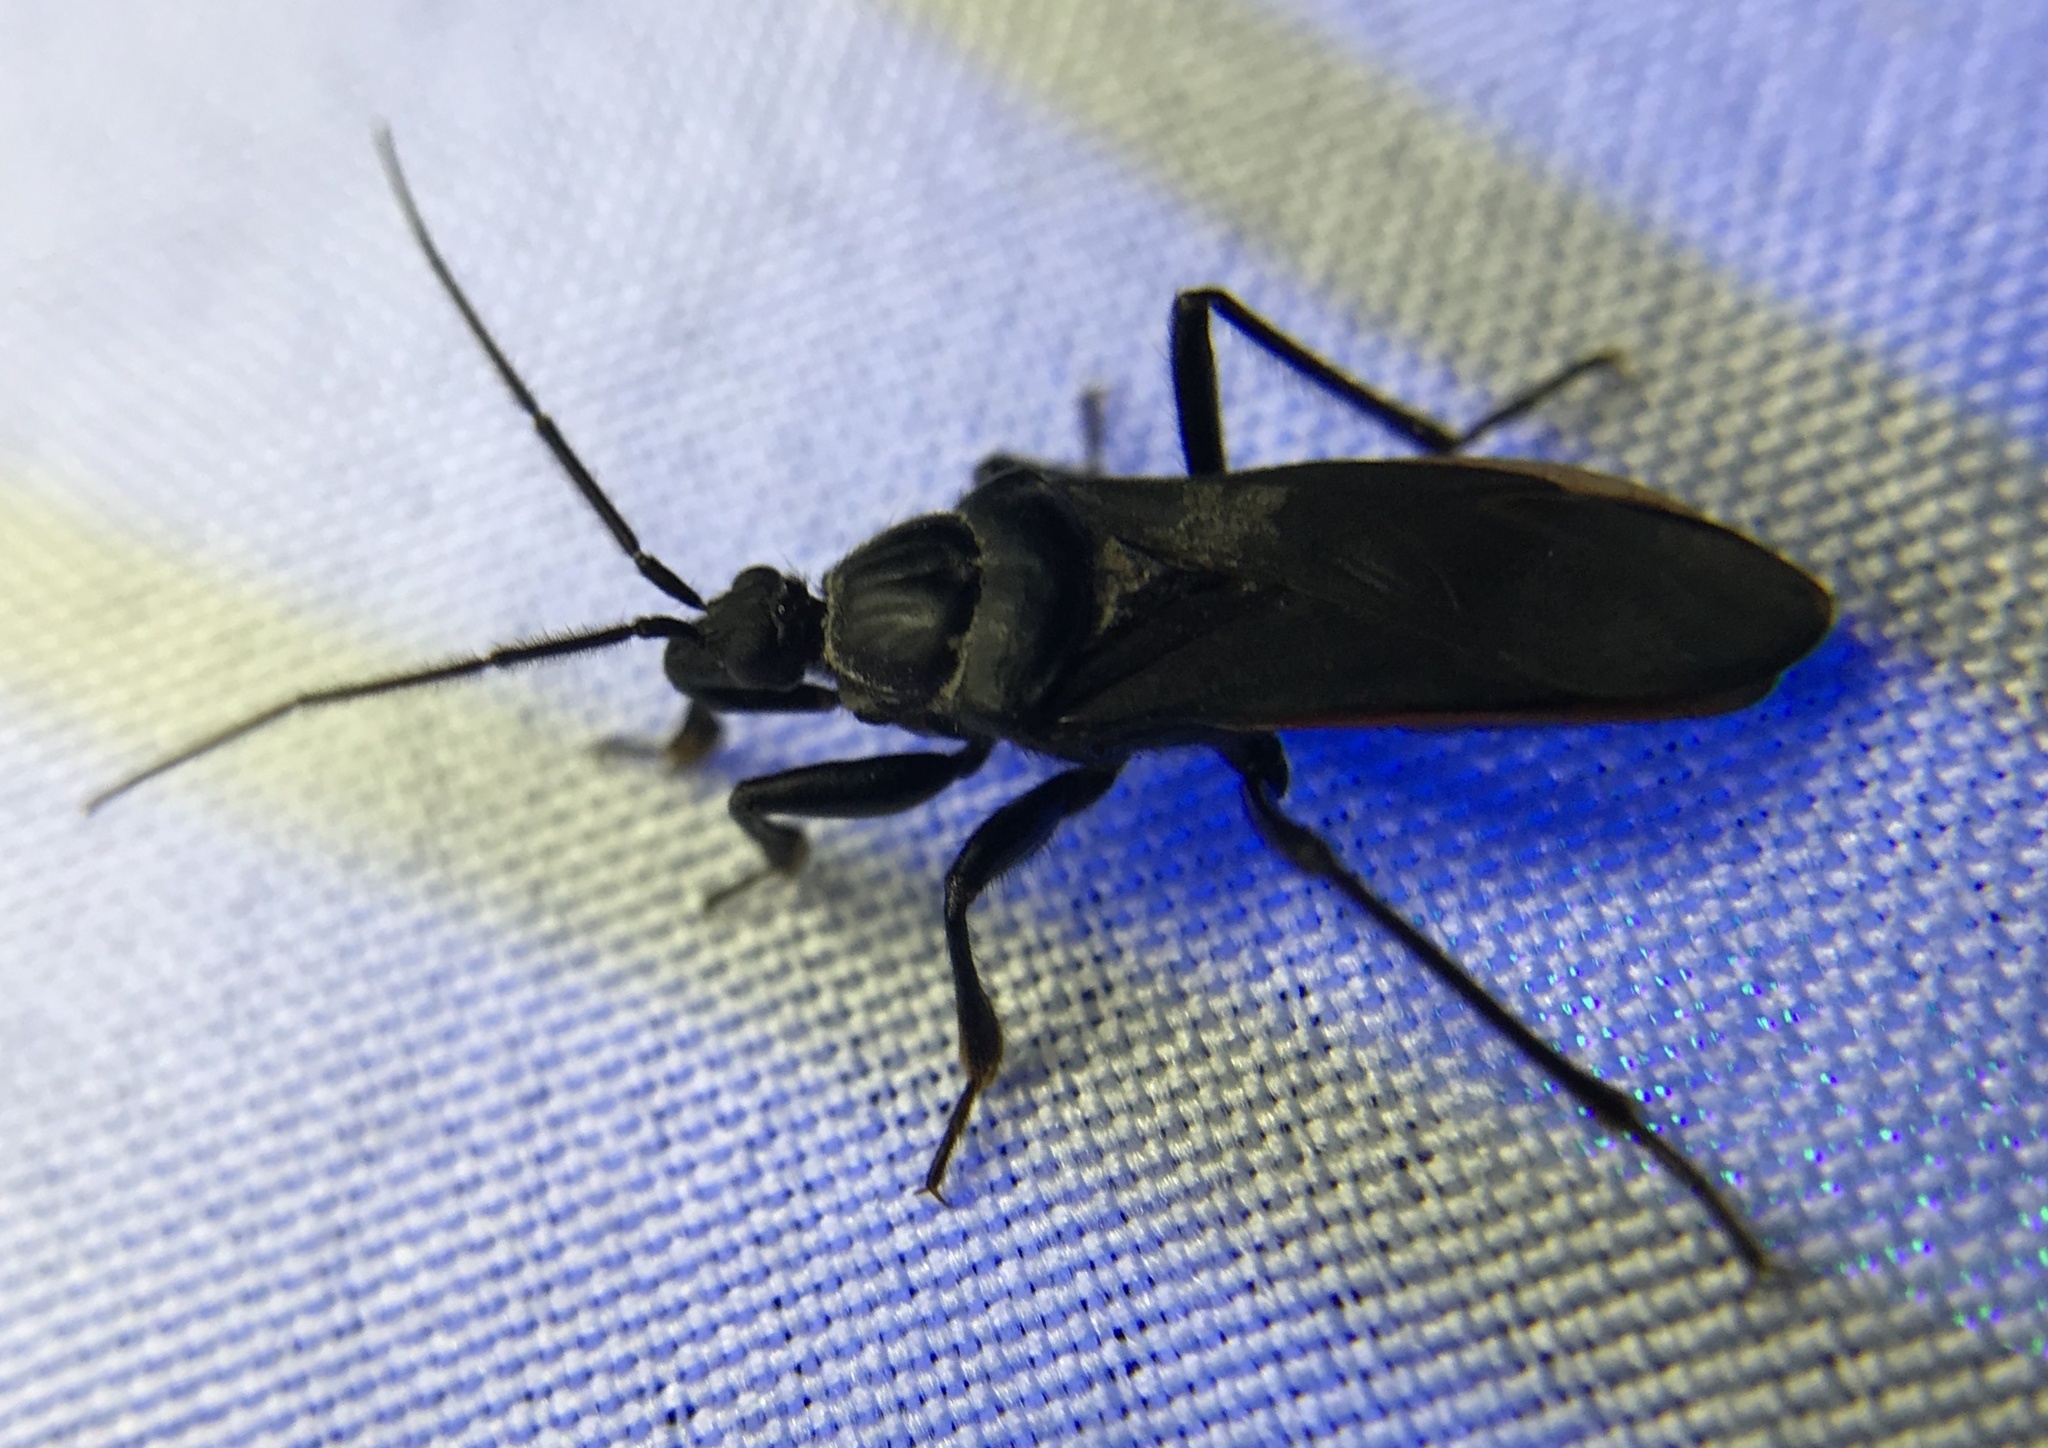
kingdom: Animalia
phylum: Arthropoda
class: Insecta
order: Hemiptera
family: Reduviidae
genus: Melanolestes
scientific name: Melanolestes picipes
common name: Assassin bug
